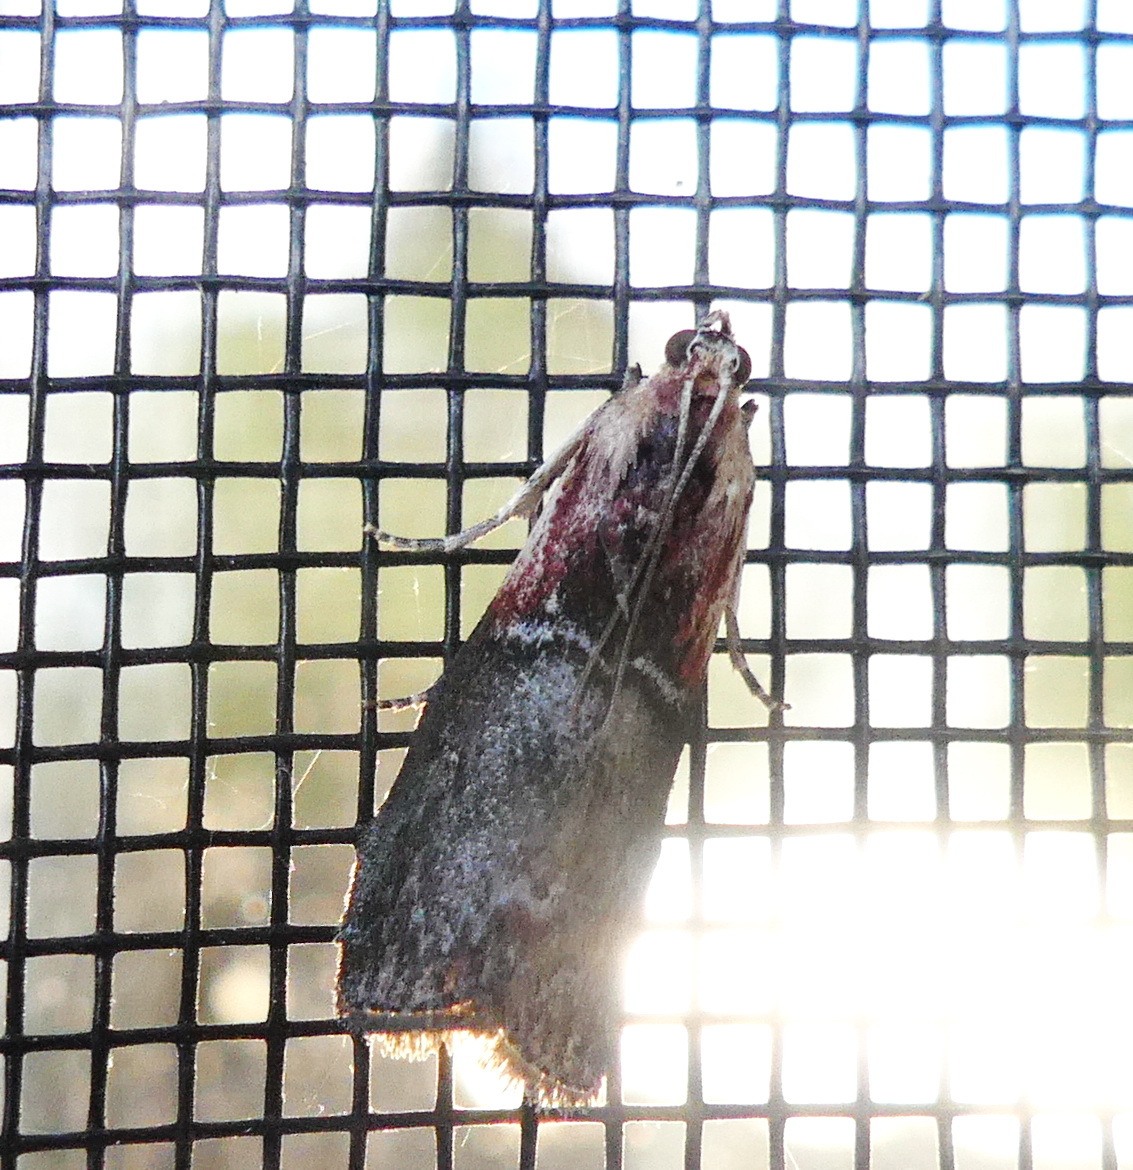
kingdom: Animalia
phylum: Arthropoda
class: Insecta
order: Lepidoptera
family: Pyralidae
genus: Sciota
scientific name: Sciota basilaris
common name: Yellow-shouldered leafroller
